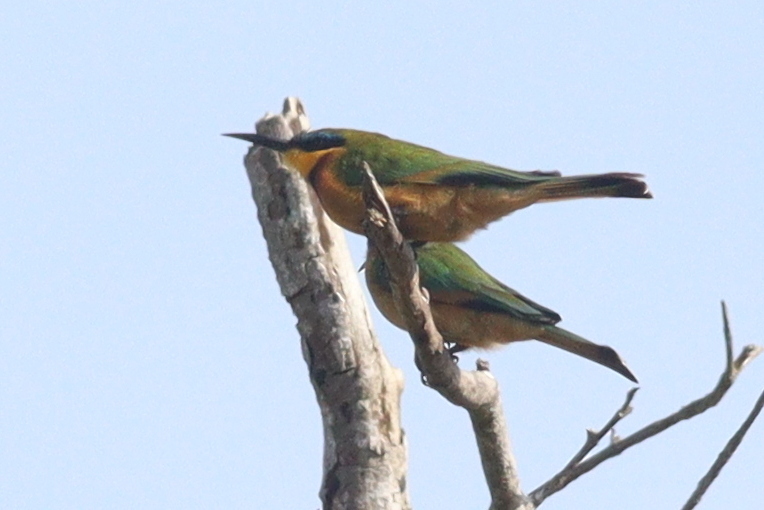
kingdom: Animalia
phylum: Chordata
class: Aves
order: Coraciiformes
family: Meropidae
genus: Merops
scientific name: Merops pusillus
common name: Little bee-eater
